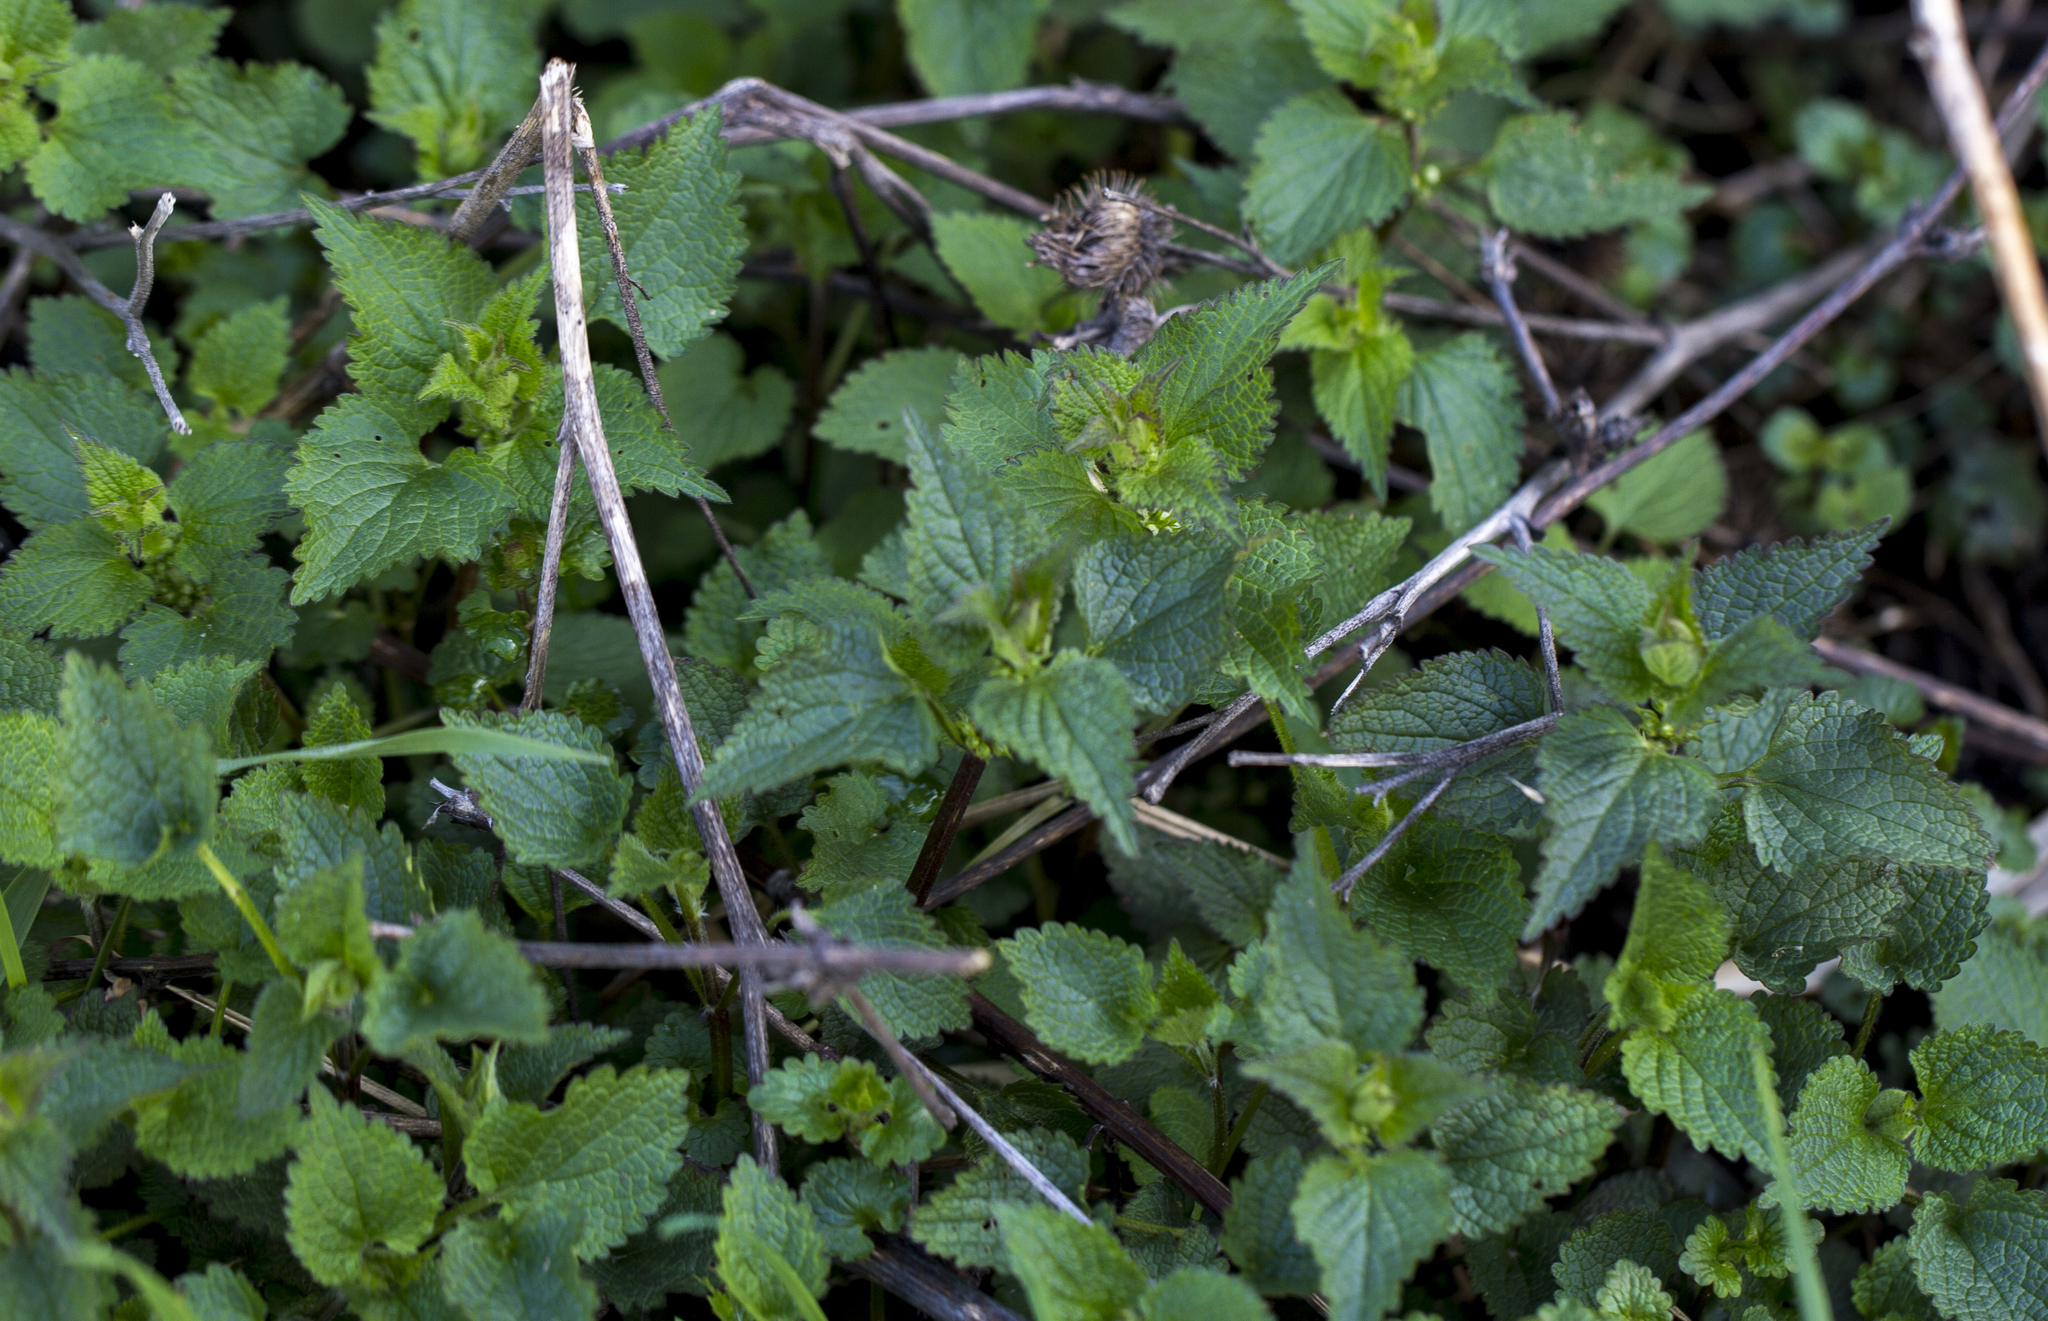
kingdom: Plantae
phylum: Tracheophyta
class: Magnoliopsida
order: Lamiales
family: Lamiaceae
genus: Lamium
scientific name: Lamium album
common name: White dead-nettle
